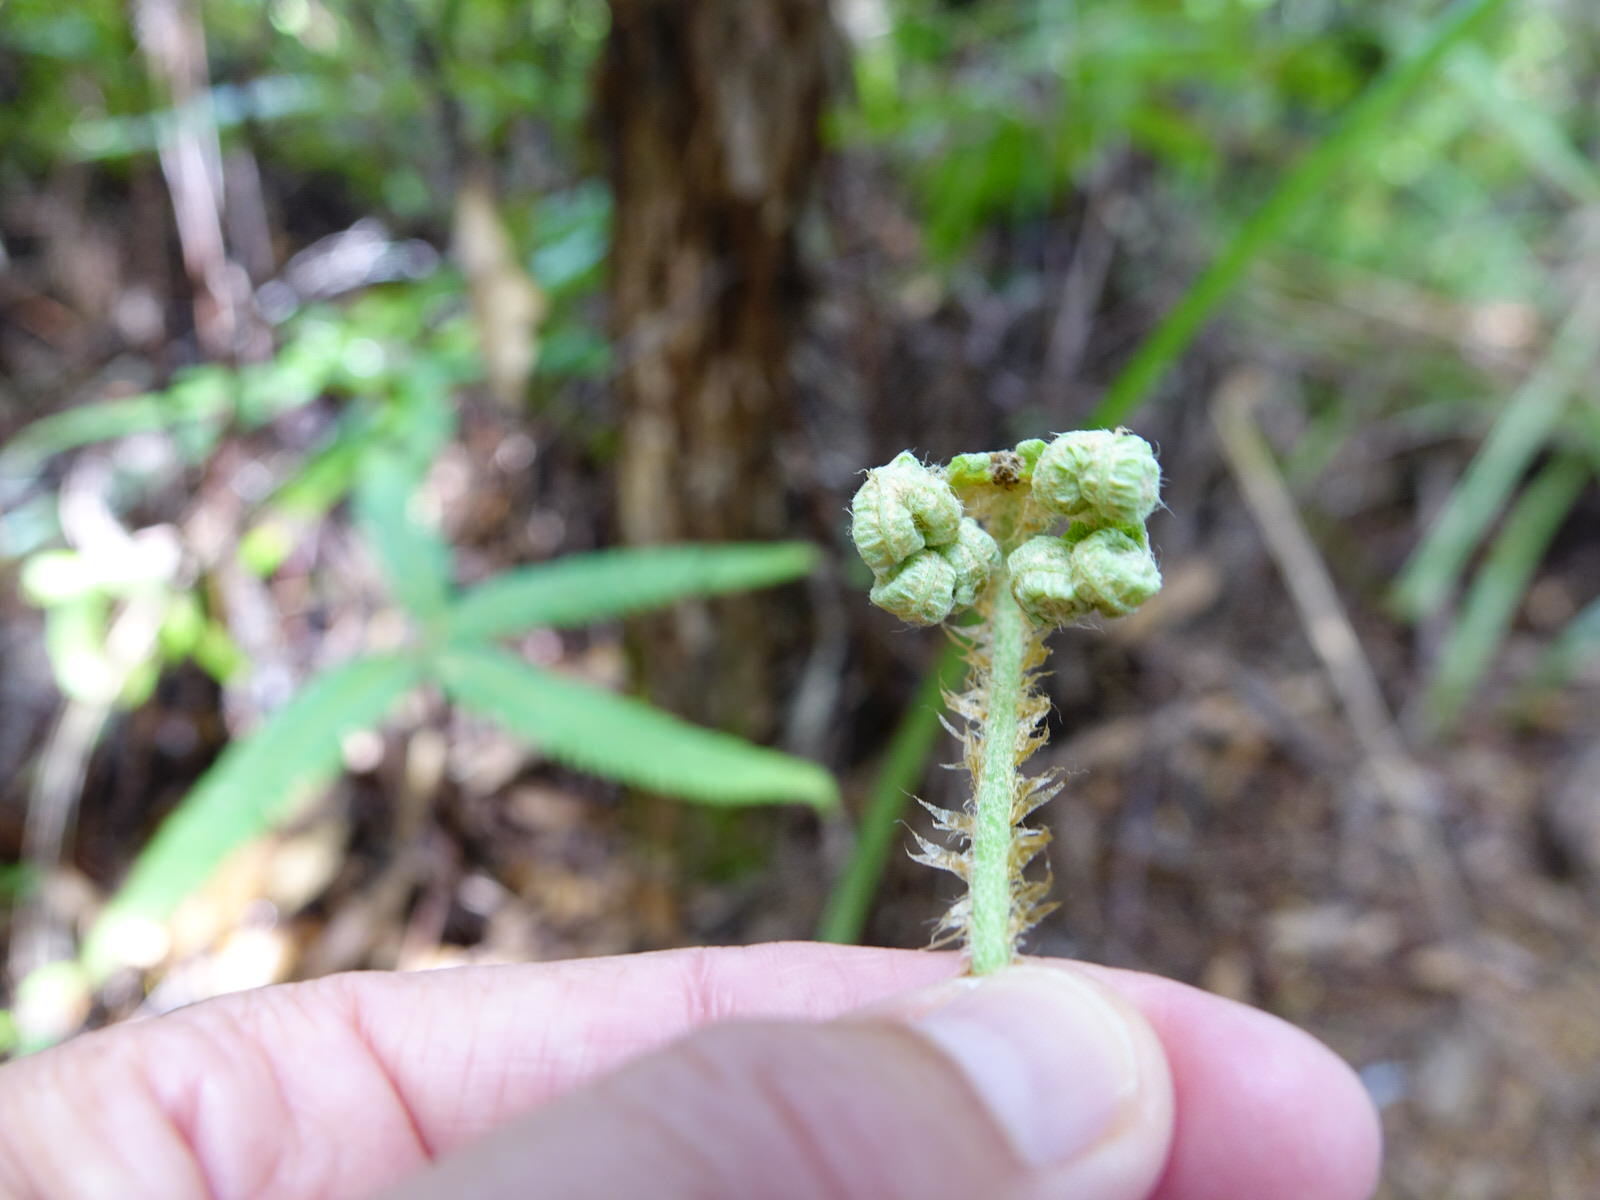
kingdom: Plantae
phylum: Tracheophyta
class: Polypodiopsida
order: Gleicheniales
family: Gleicheniaceae
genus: Sticherus
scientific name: Sticherus cunninghamii
